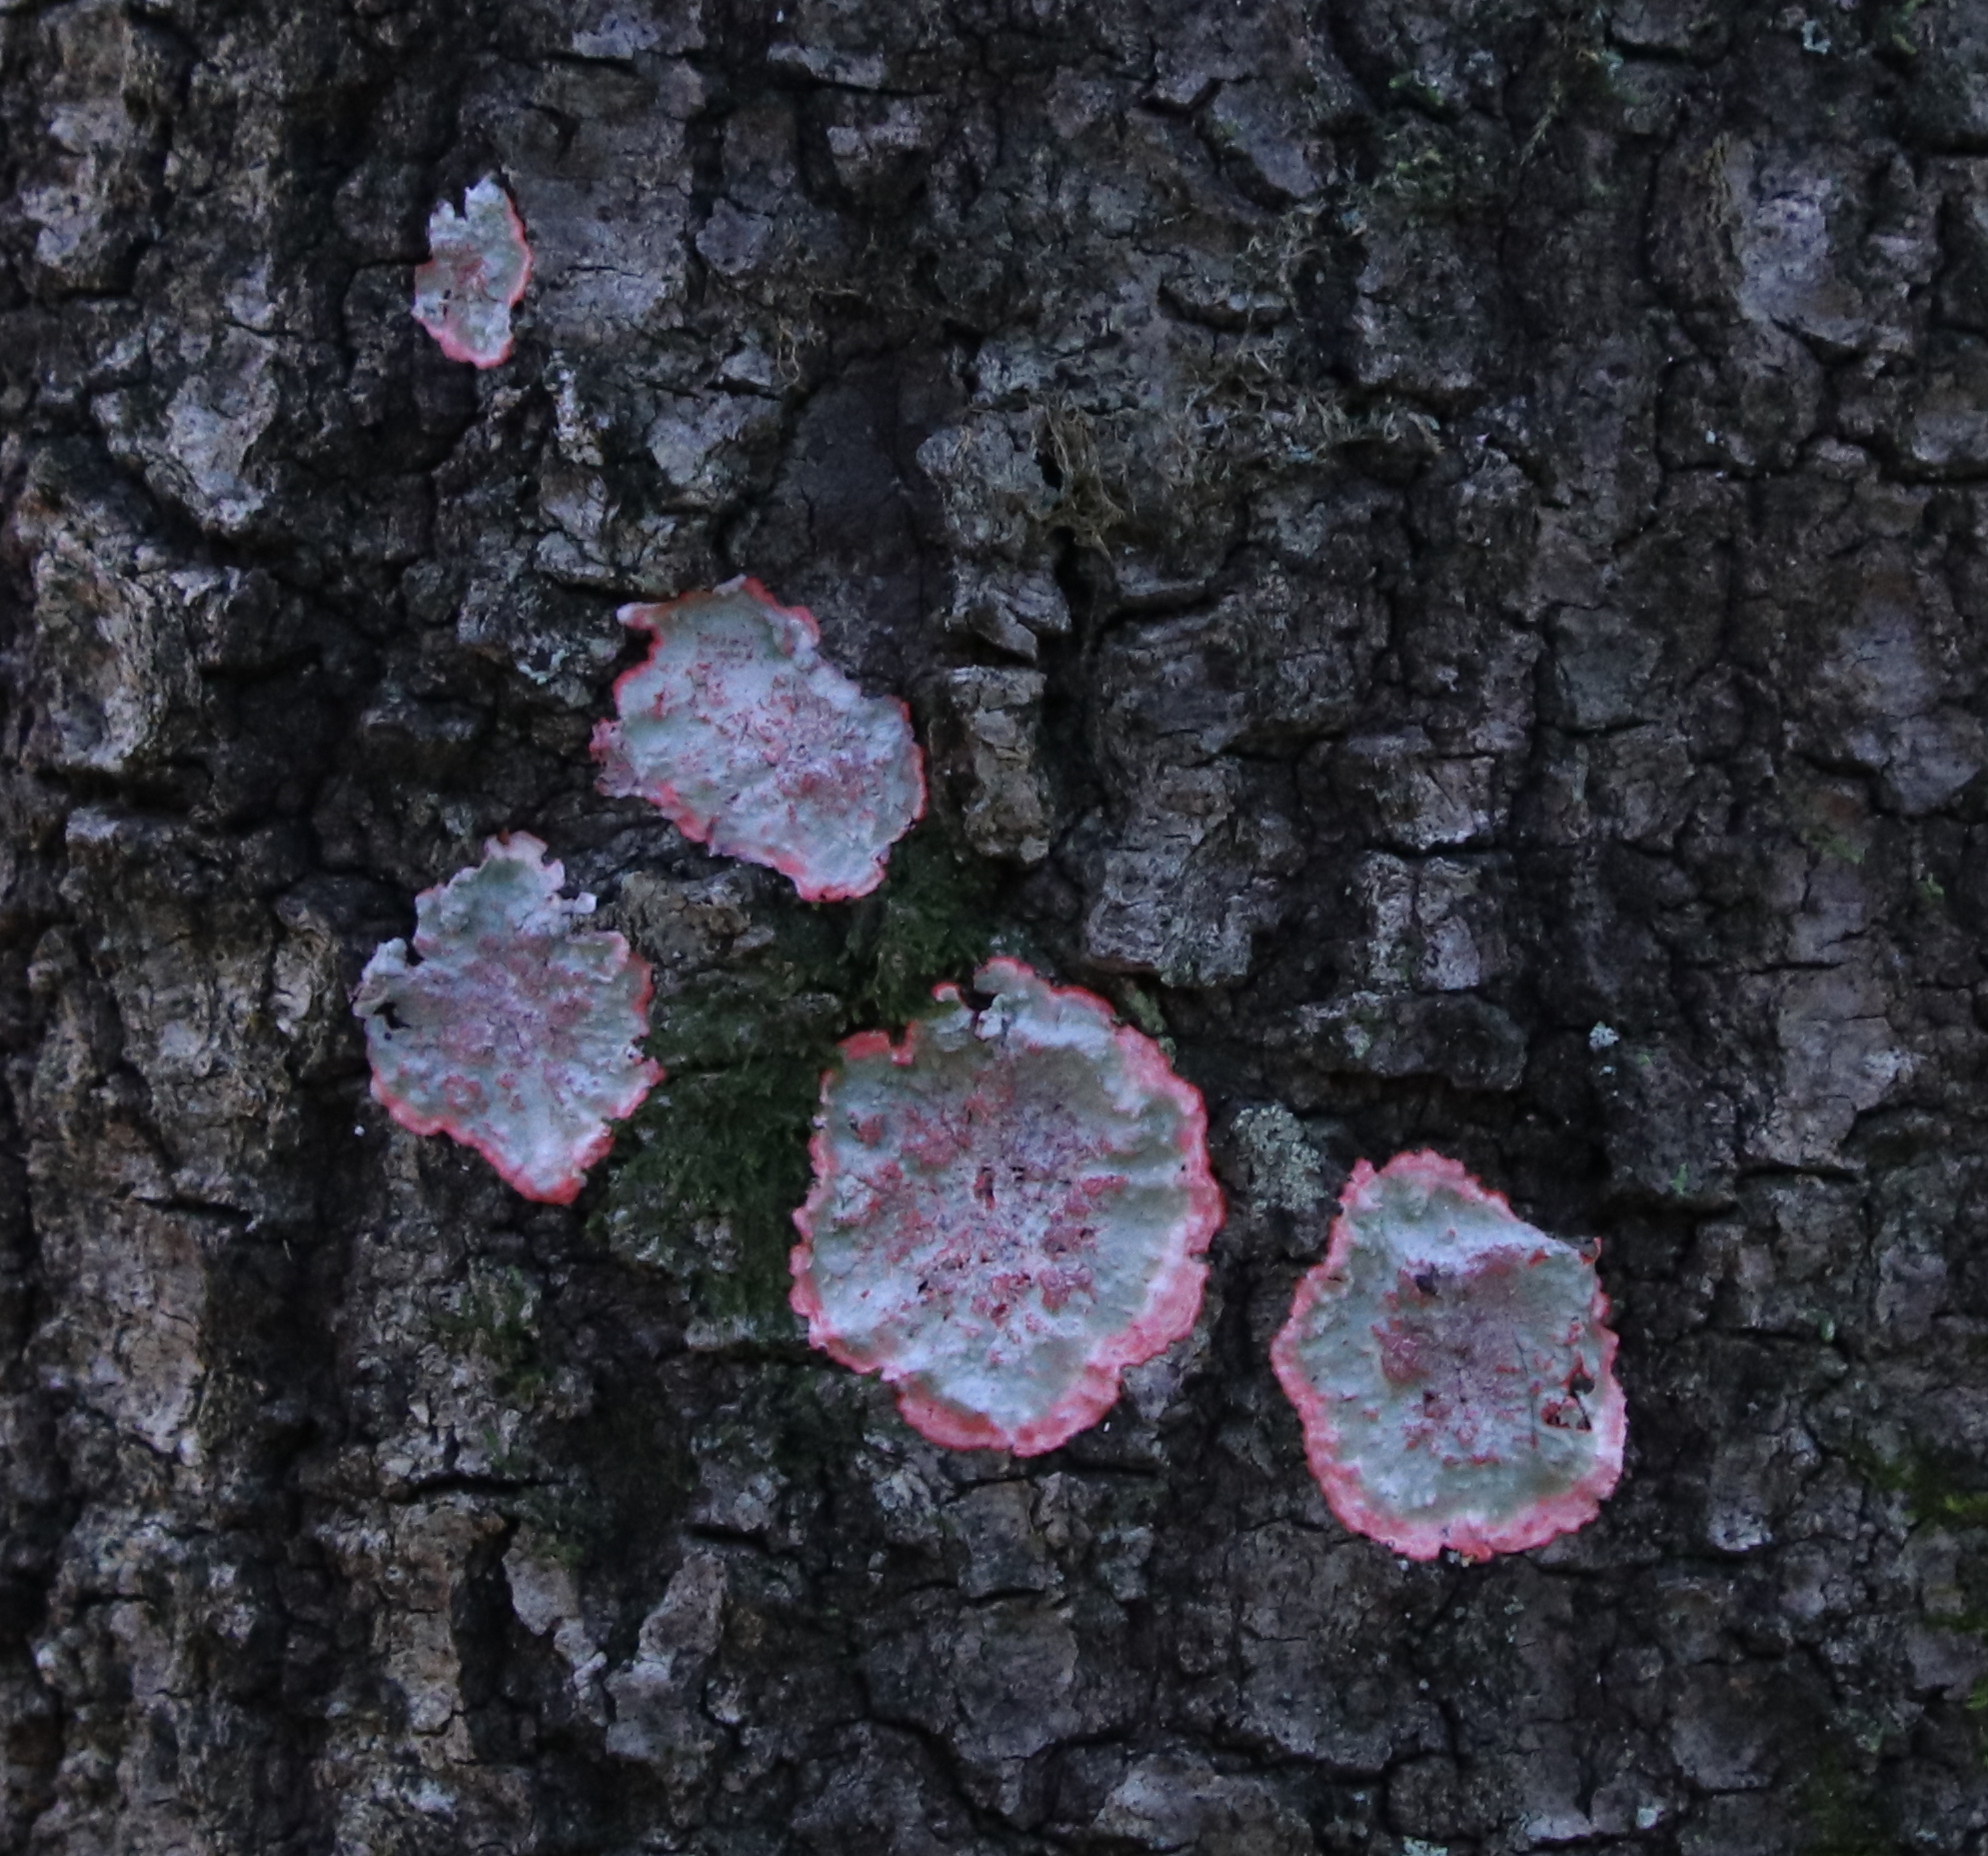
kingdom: Fungi
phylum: Ascomycota
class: Arthoniomycetes
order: Arthoniales
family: Arthoniaceae
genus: Herpothallon
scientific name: Herpothallon rubrocinctum
